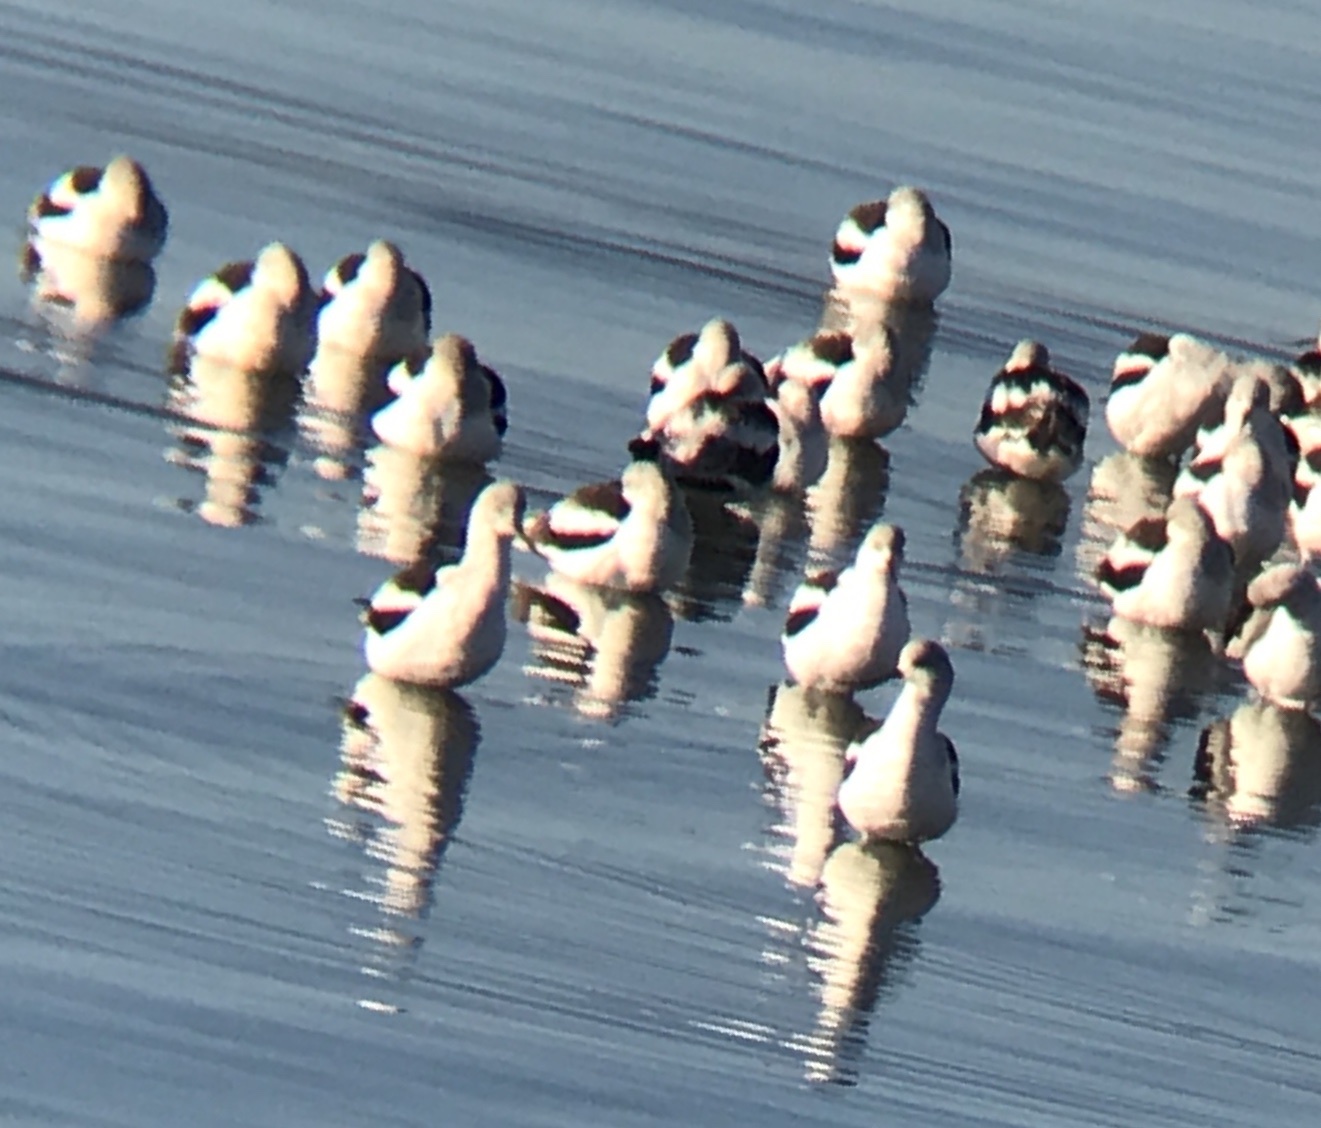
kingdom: Animalia
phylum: Chordata
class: Aves
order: Charadriiformes
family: Recurvirostridae
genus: Recurvirostra
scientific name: Recurvirostra americana
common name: American avocet
